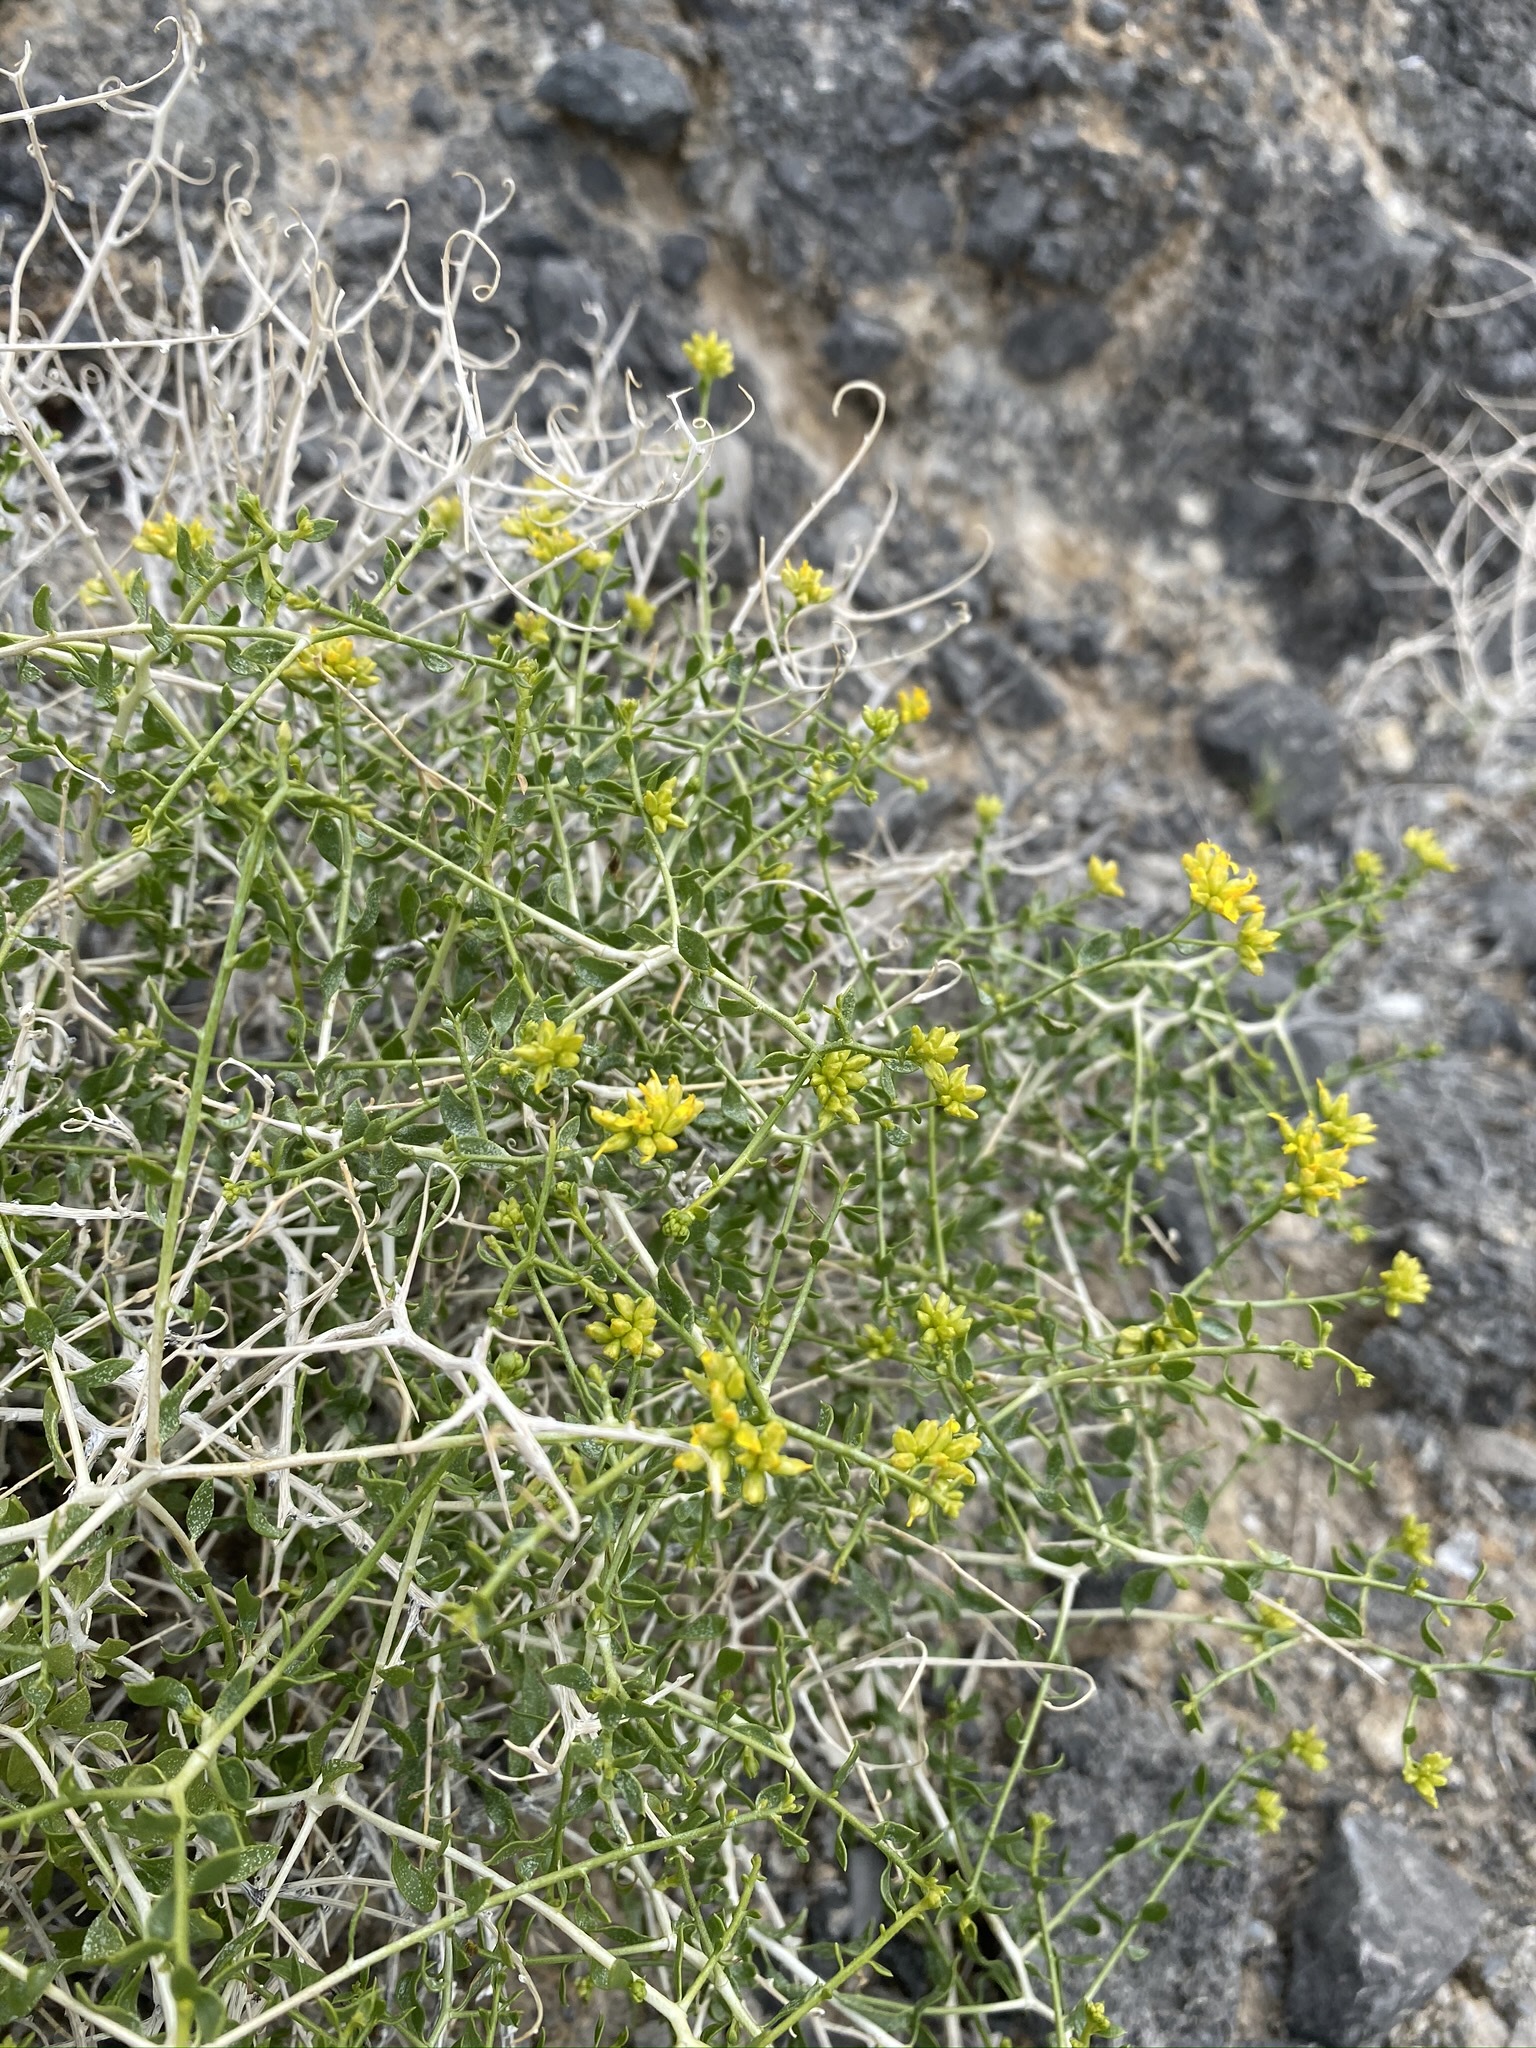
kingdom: Plantae
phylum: Tracheophyta
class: Magnoliopsida
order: Asterales
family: Asteraceae
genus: Amphipappus
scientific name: Amphipappus fremontii
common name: Fremont's chaffbush
